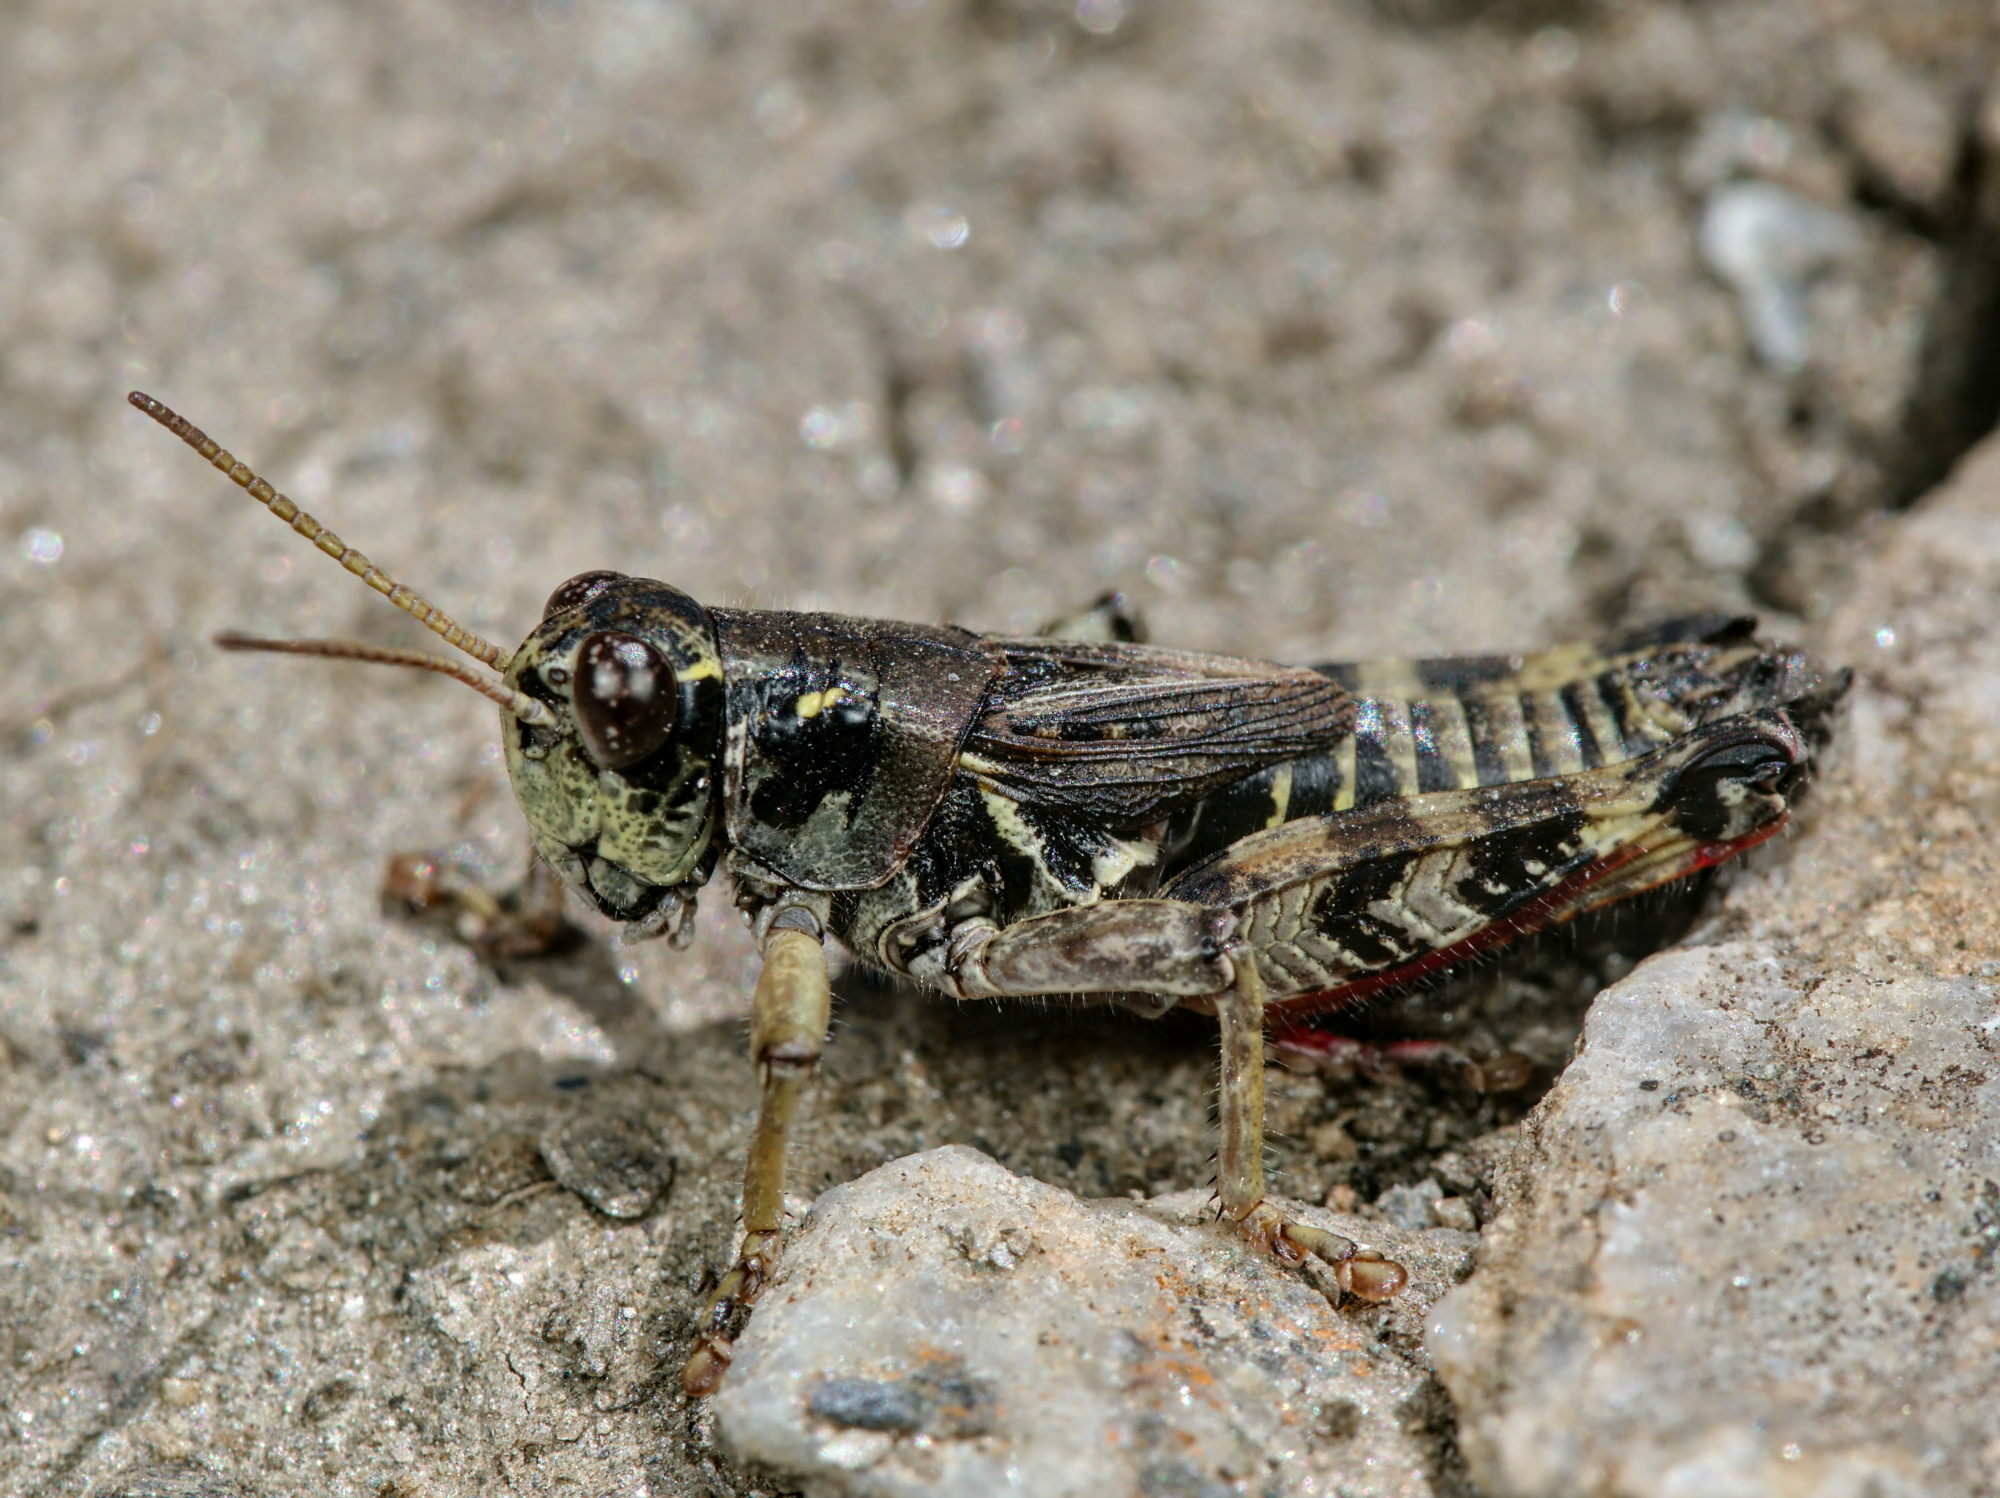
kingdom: Animalia
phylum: Arthropoda
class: Insecta
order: Orthoptera
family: Acrididae
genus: Bohemanella
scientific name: Bohemanella frigida
